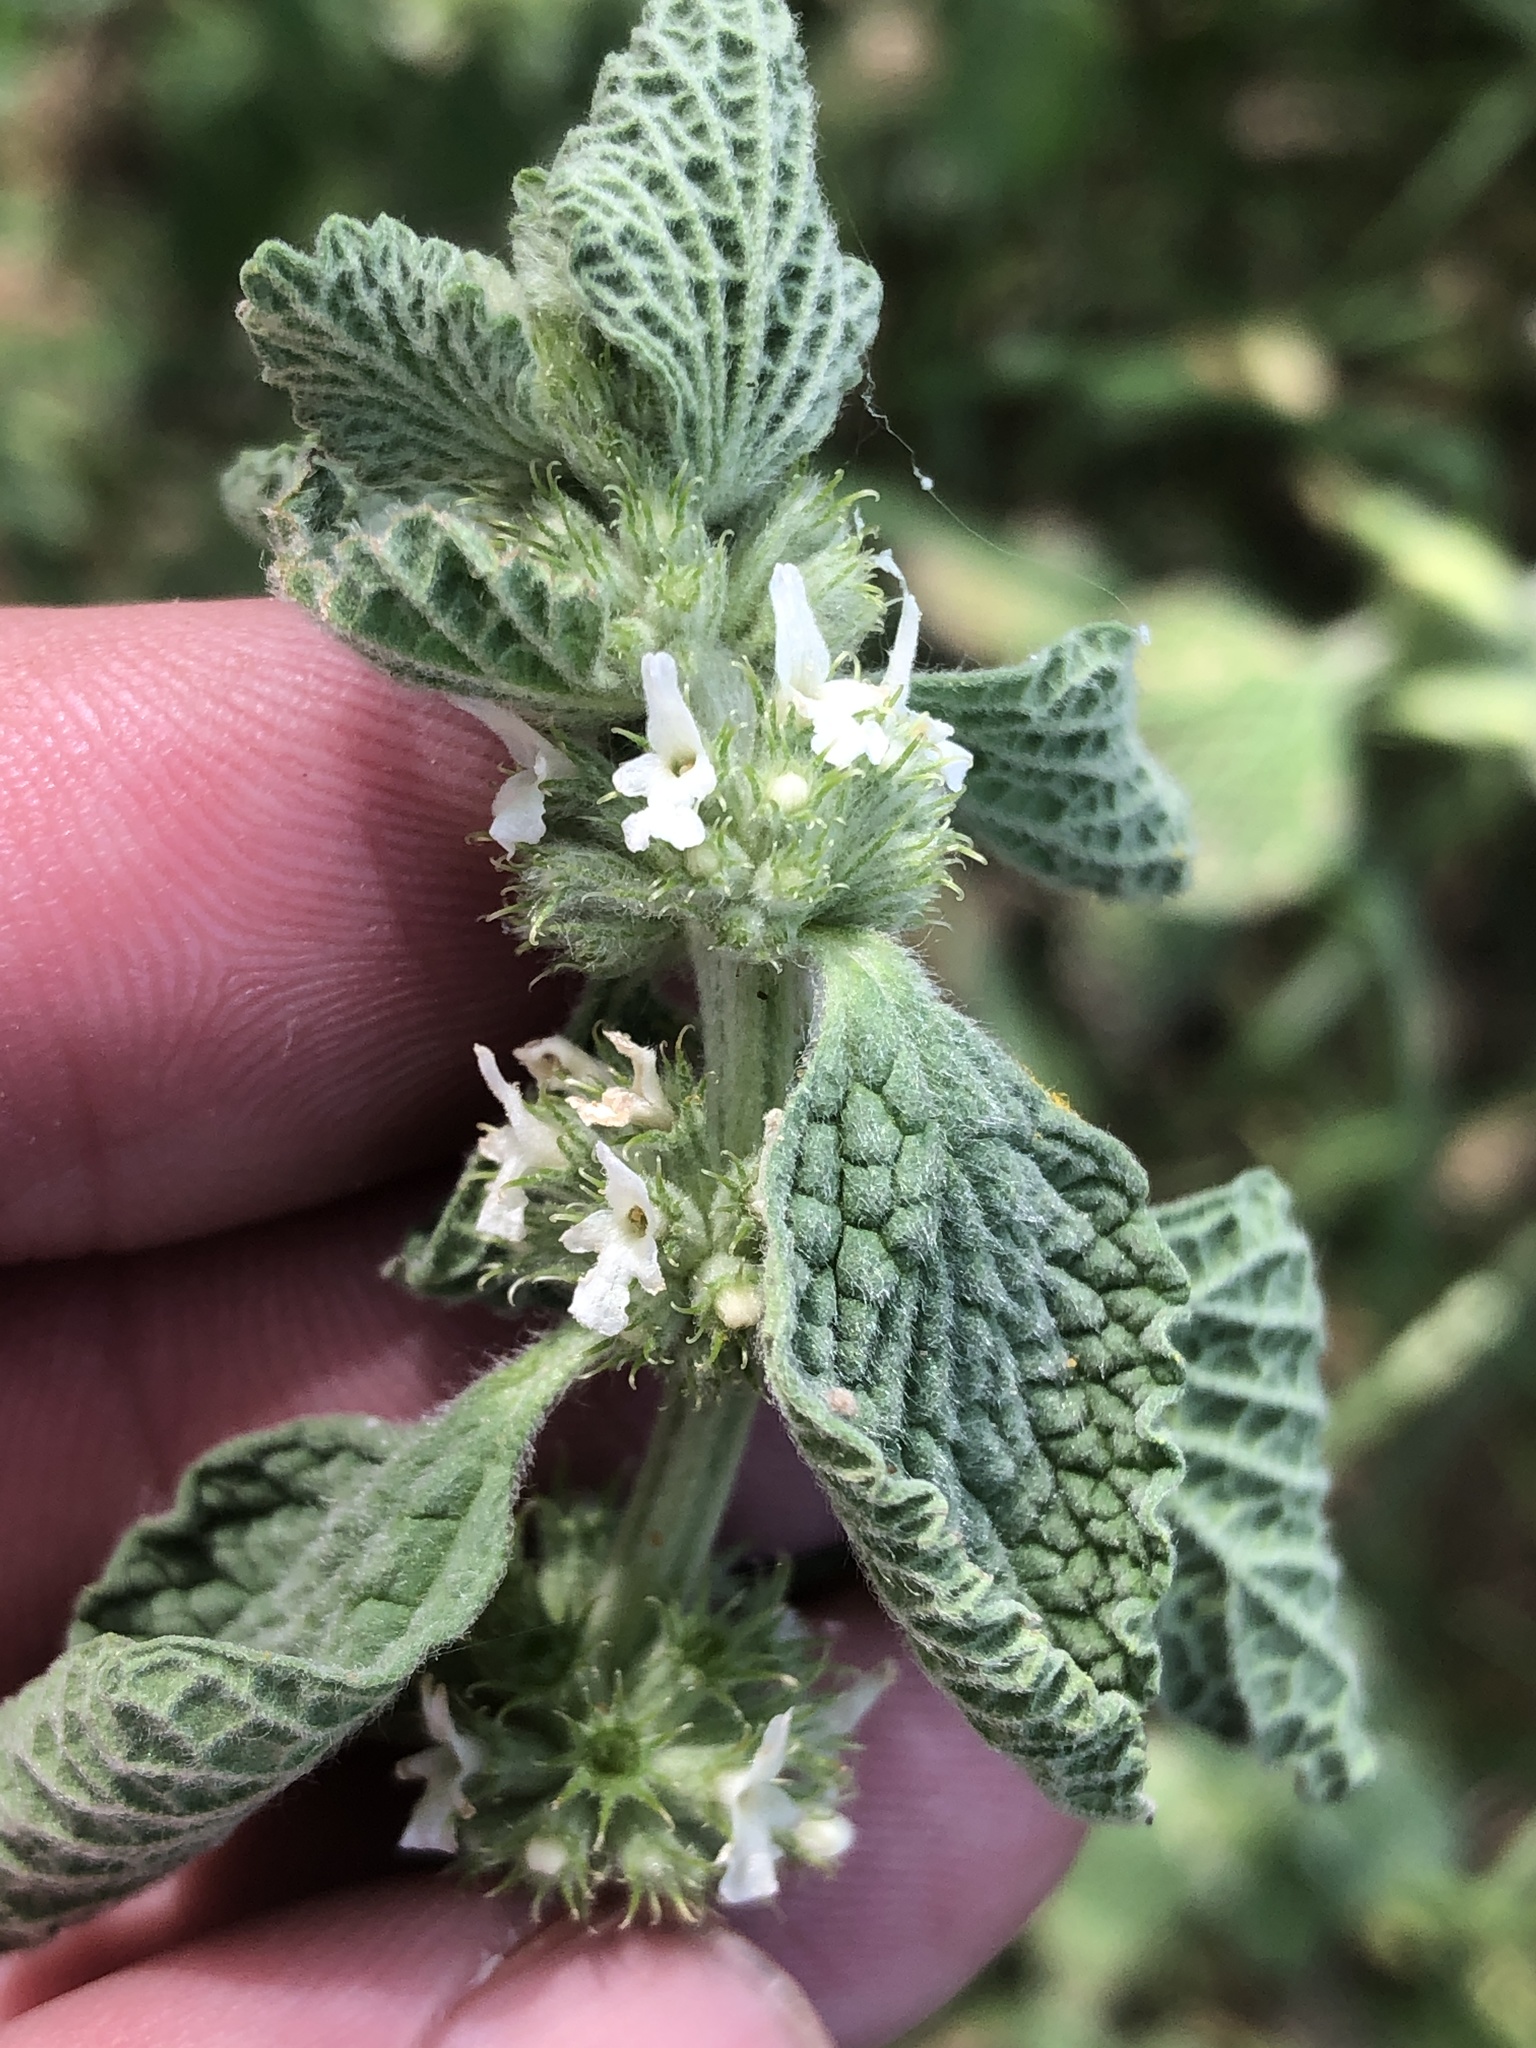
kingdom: Plantae
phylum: Tracheophyta
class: Magnoliopsida
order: Lamiales
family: Lamiaceae
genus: Marrubium
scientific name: Marrubium vulgare
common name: Horehound
